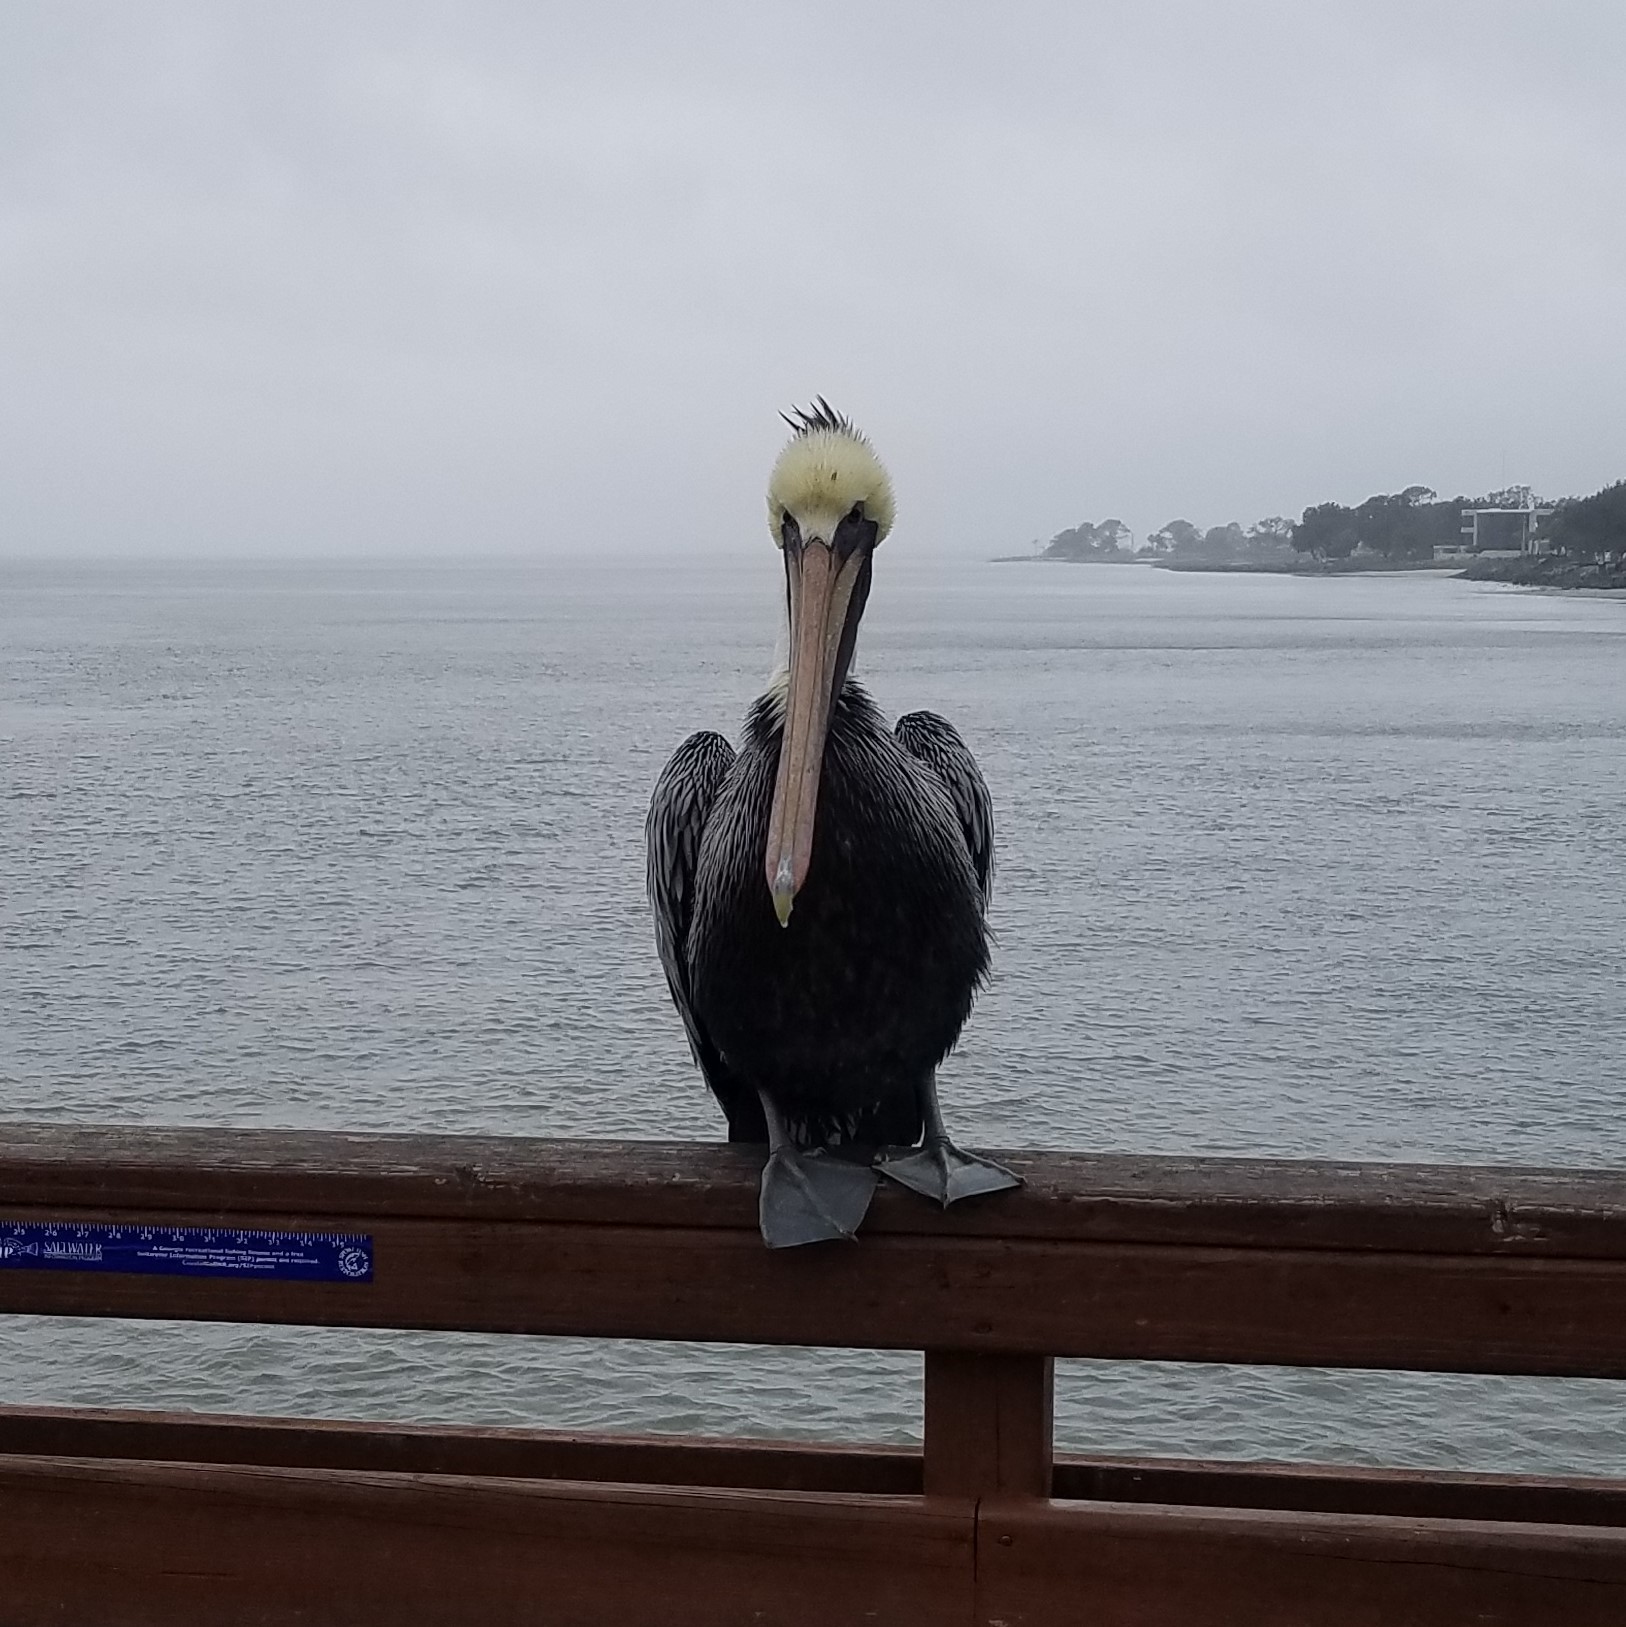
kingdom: Animalia
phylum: Chordata
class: Aves
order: Pelecaniformes
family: Pelecanidae
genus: Pelecanus
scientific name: Pelecanus occidentalis
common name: Brown pelican
